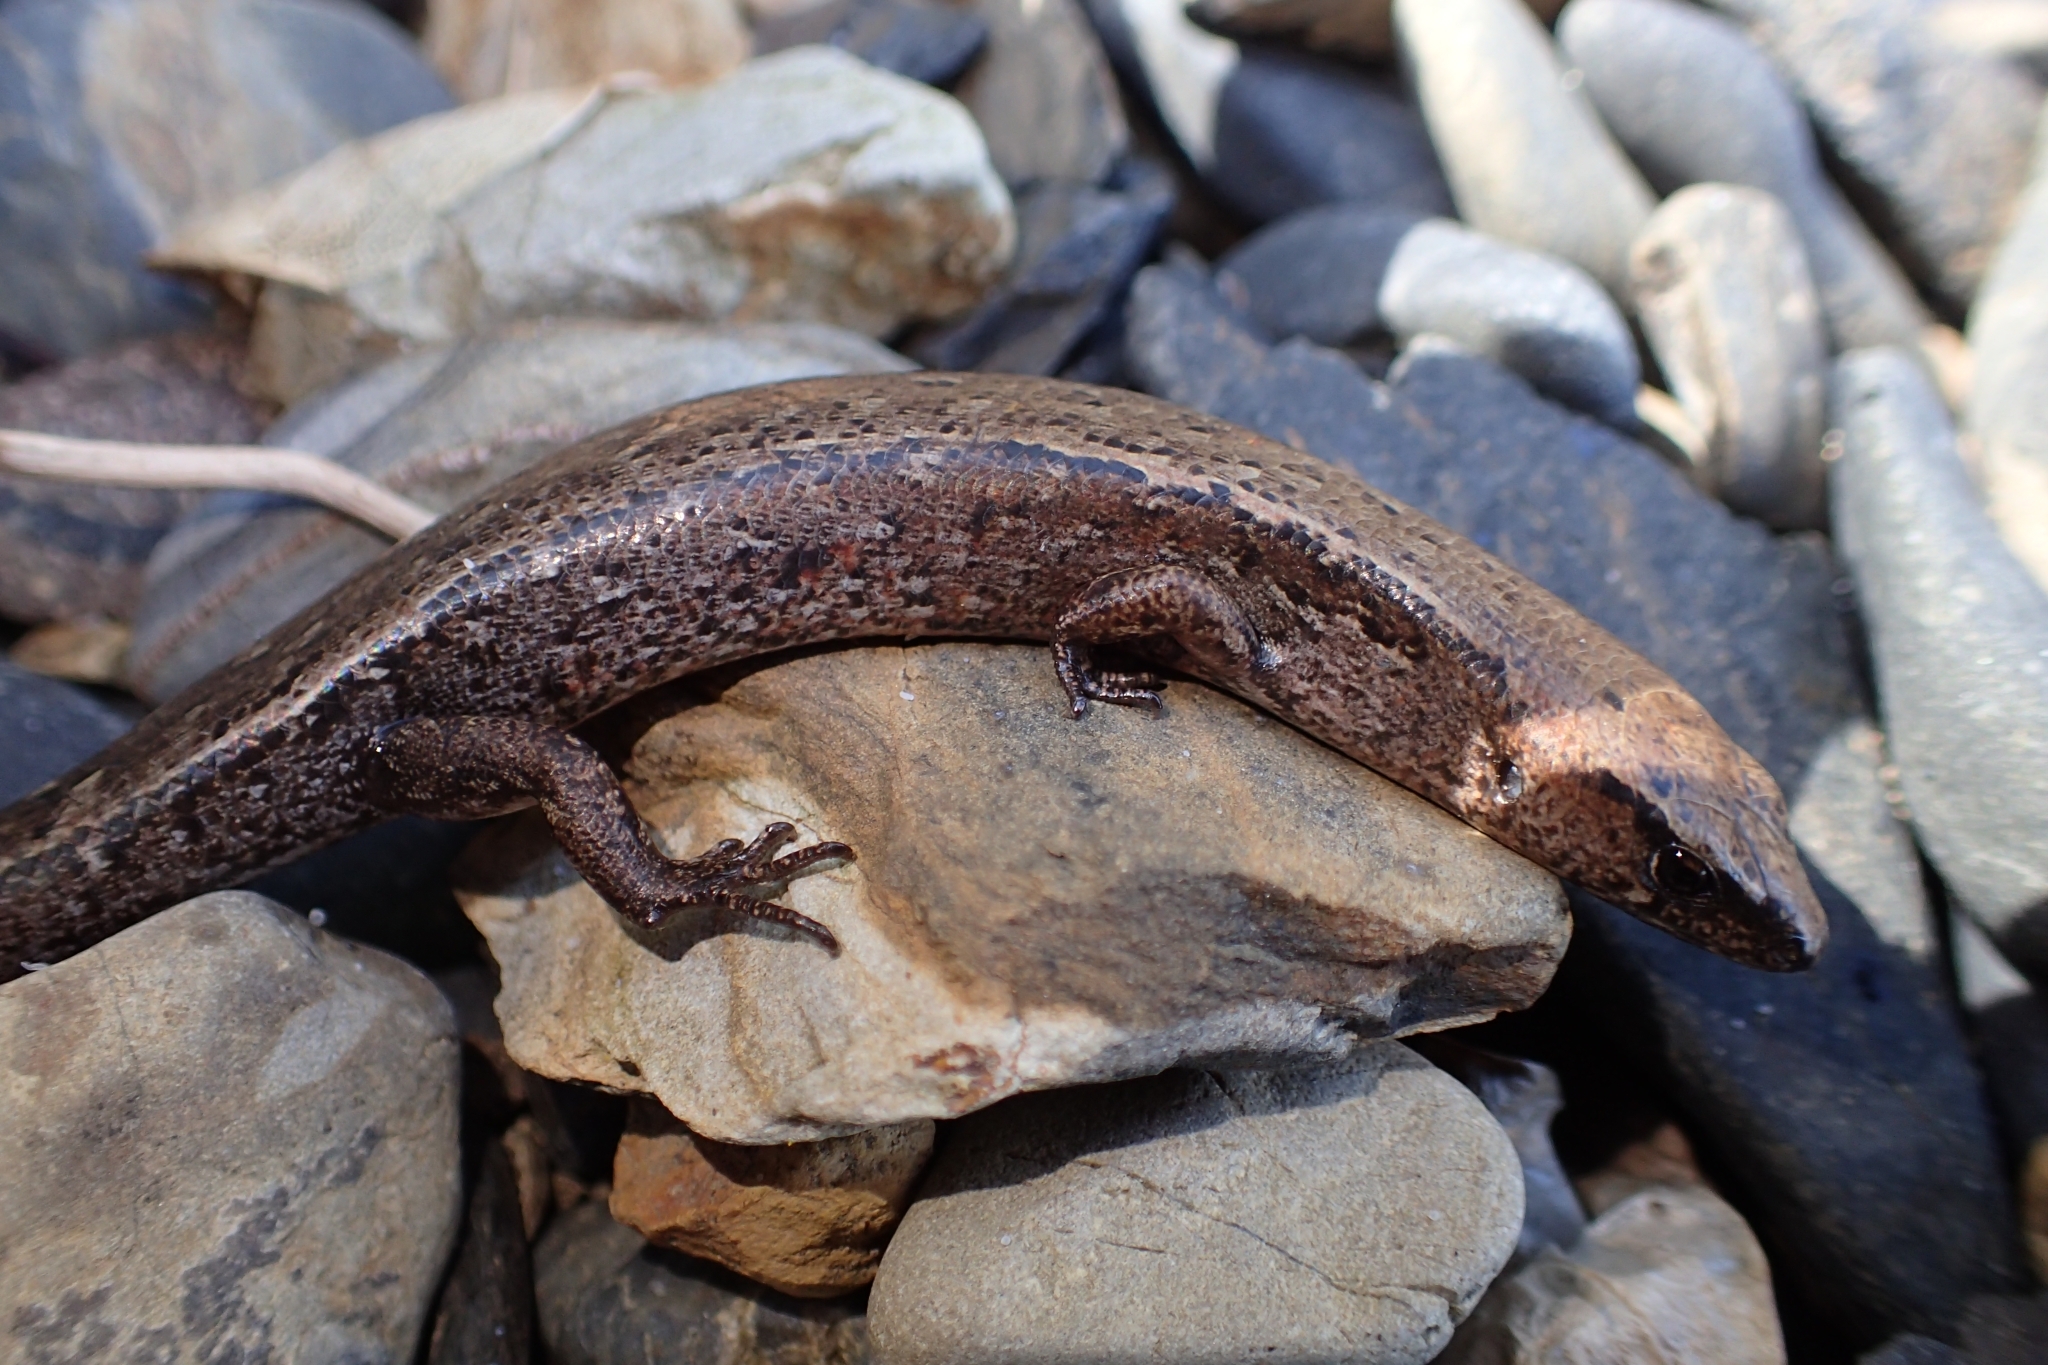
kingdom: Animalia
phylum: Chordata
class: Squamata
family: Scincidae
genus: Oligosoma
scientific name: Oligosoma ornatum
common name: Gray's ornate skink
